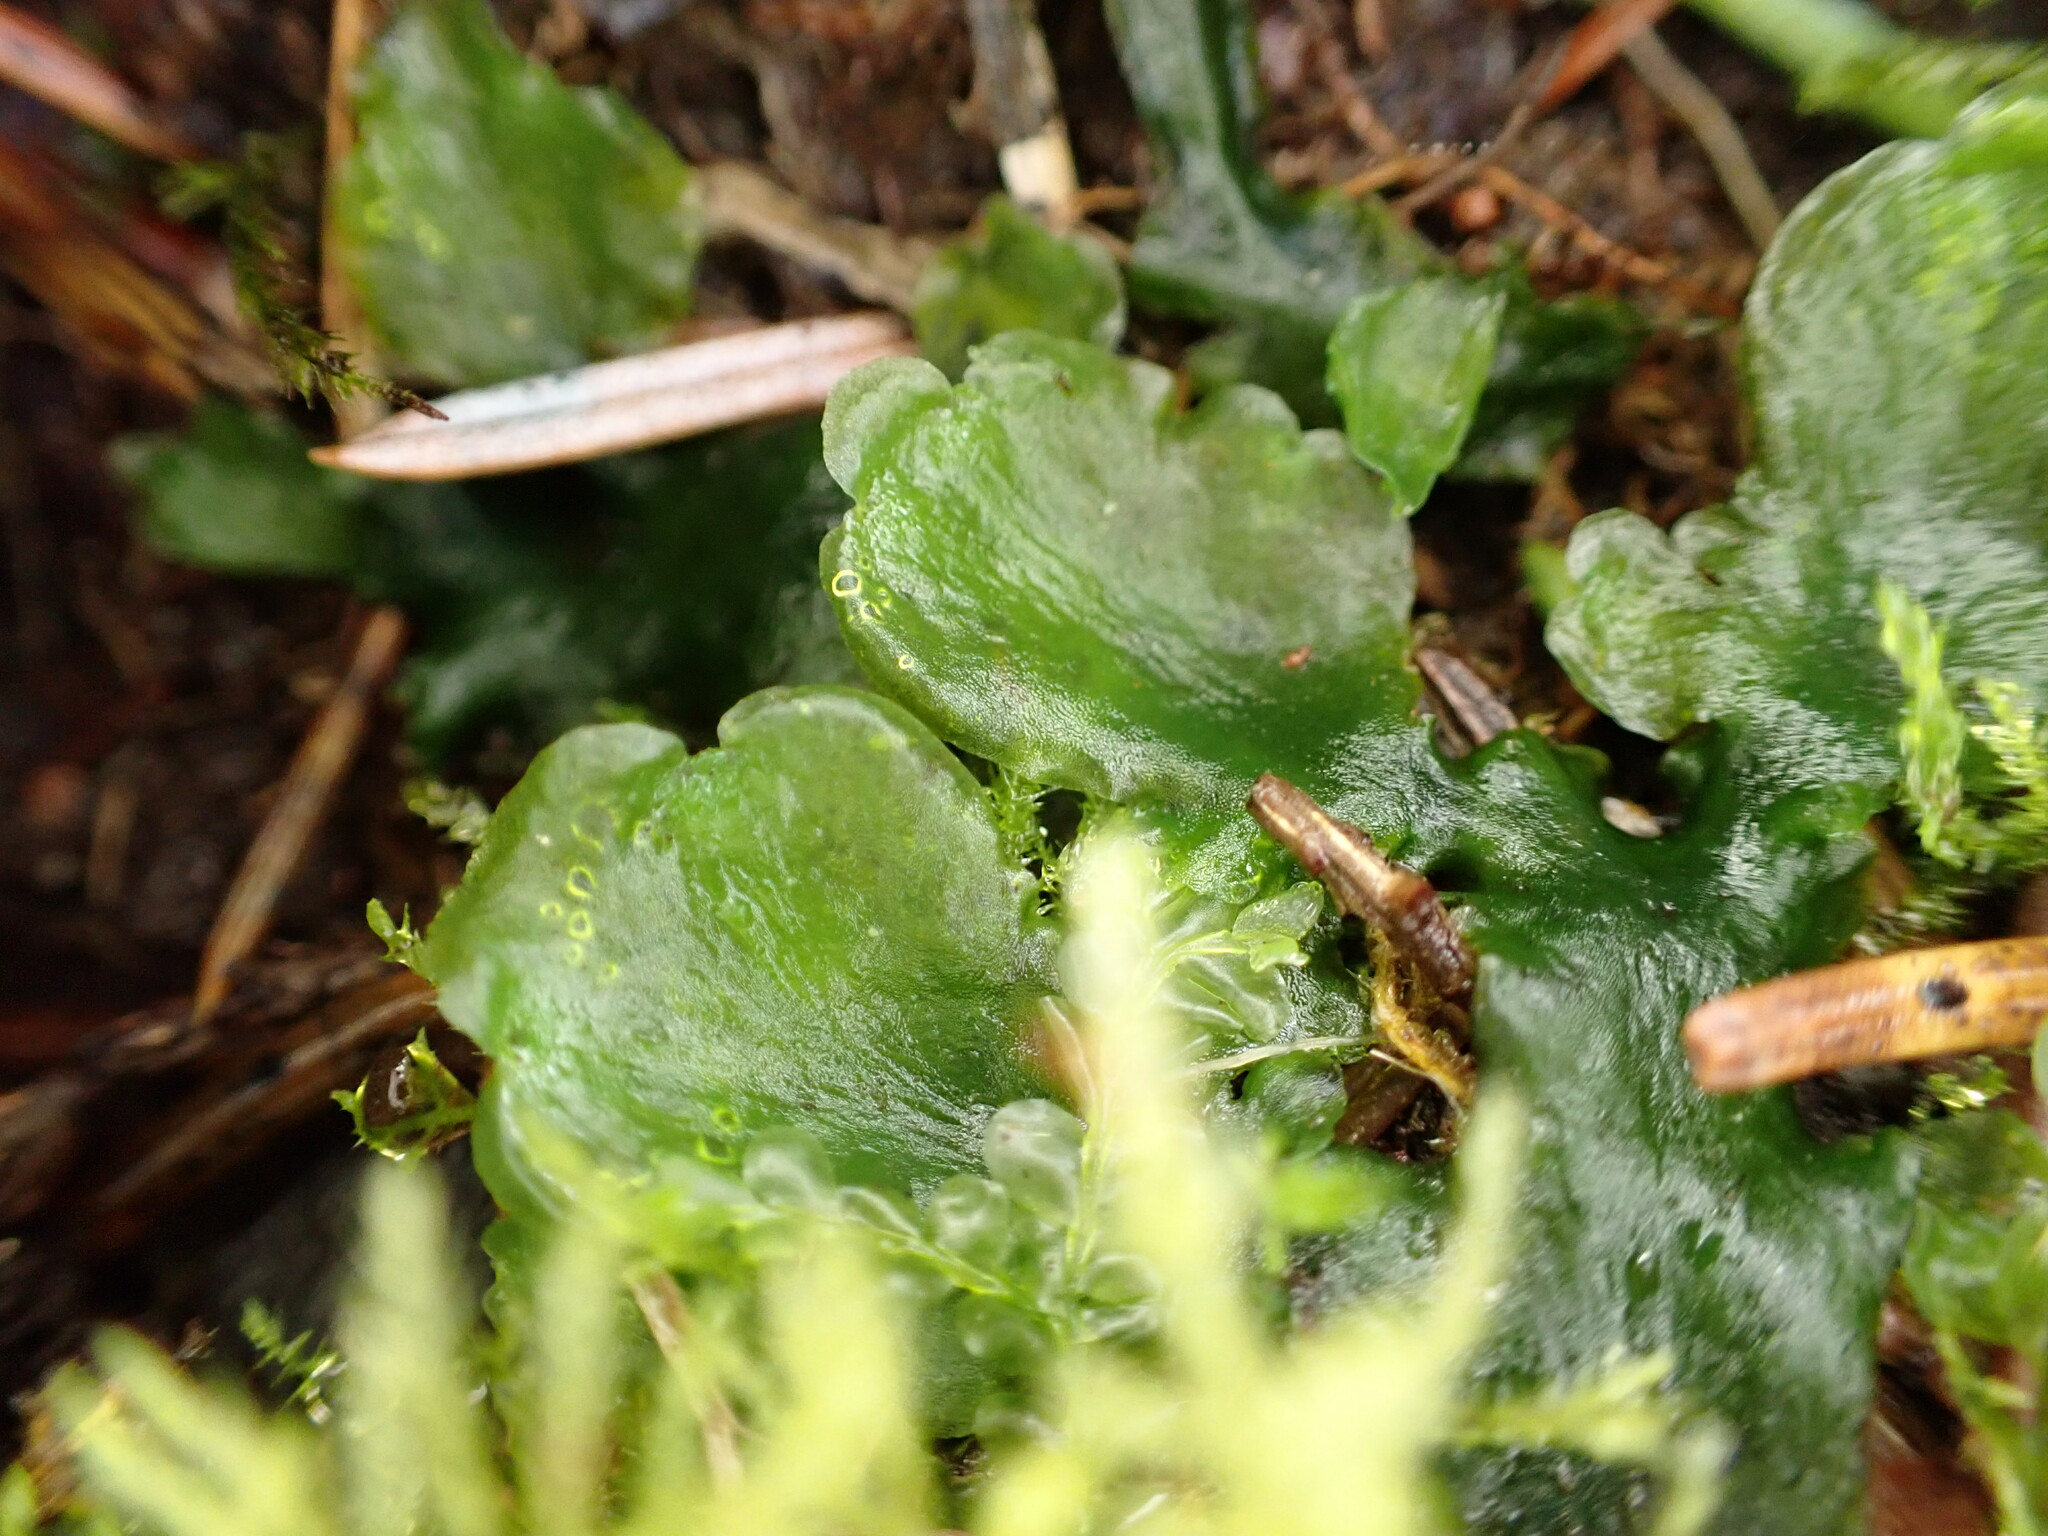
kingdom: Plantae
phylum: Marchantiophyta
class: Jungermanniopsida
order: Pelliales
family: Pelliaceae
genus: Pellia
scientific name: Pellia neesiana
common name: Nees  pellia
